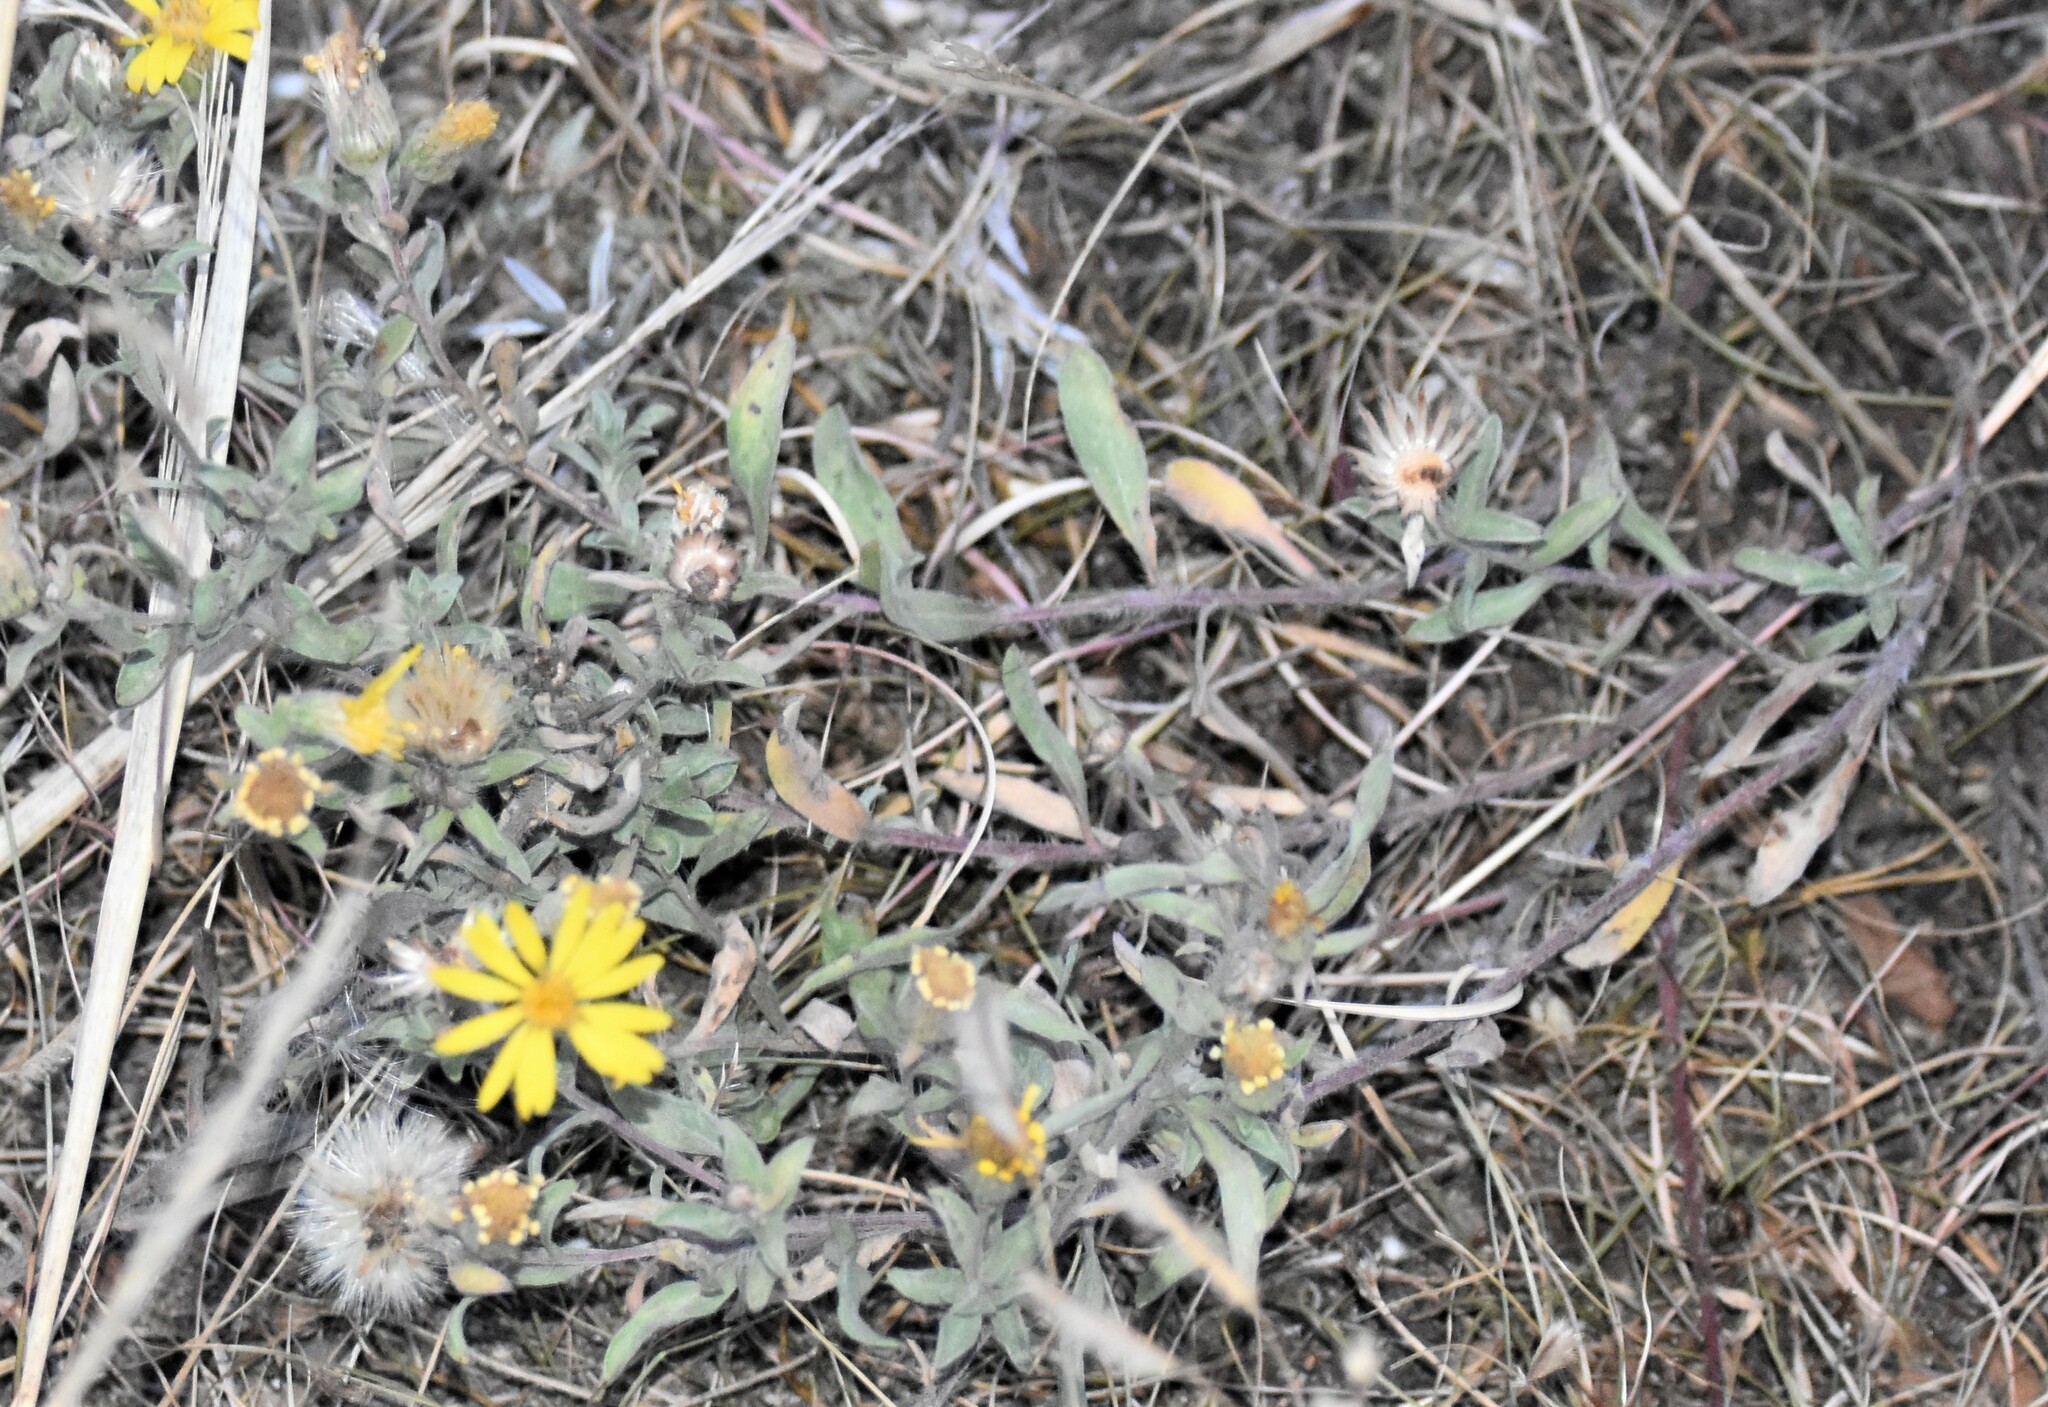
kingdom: Plantae
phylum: Tracheophyta
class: Magnoliopsida
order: Asterales
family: Asteraceae
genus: Heterotheca
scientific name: Heterotheca villosa
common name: Hairy false goldenaster
